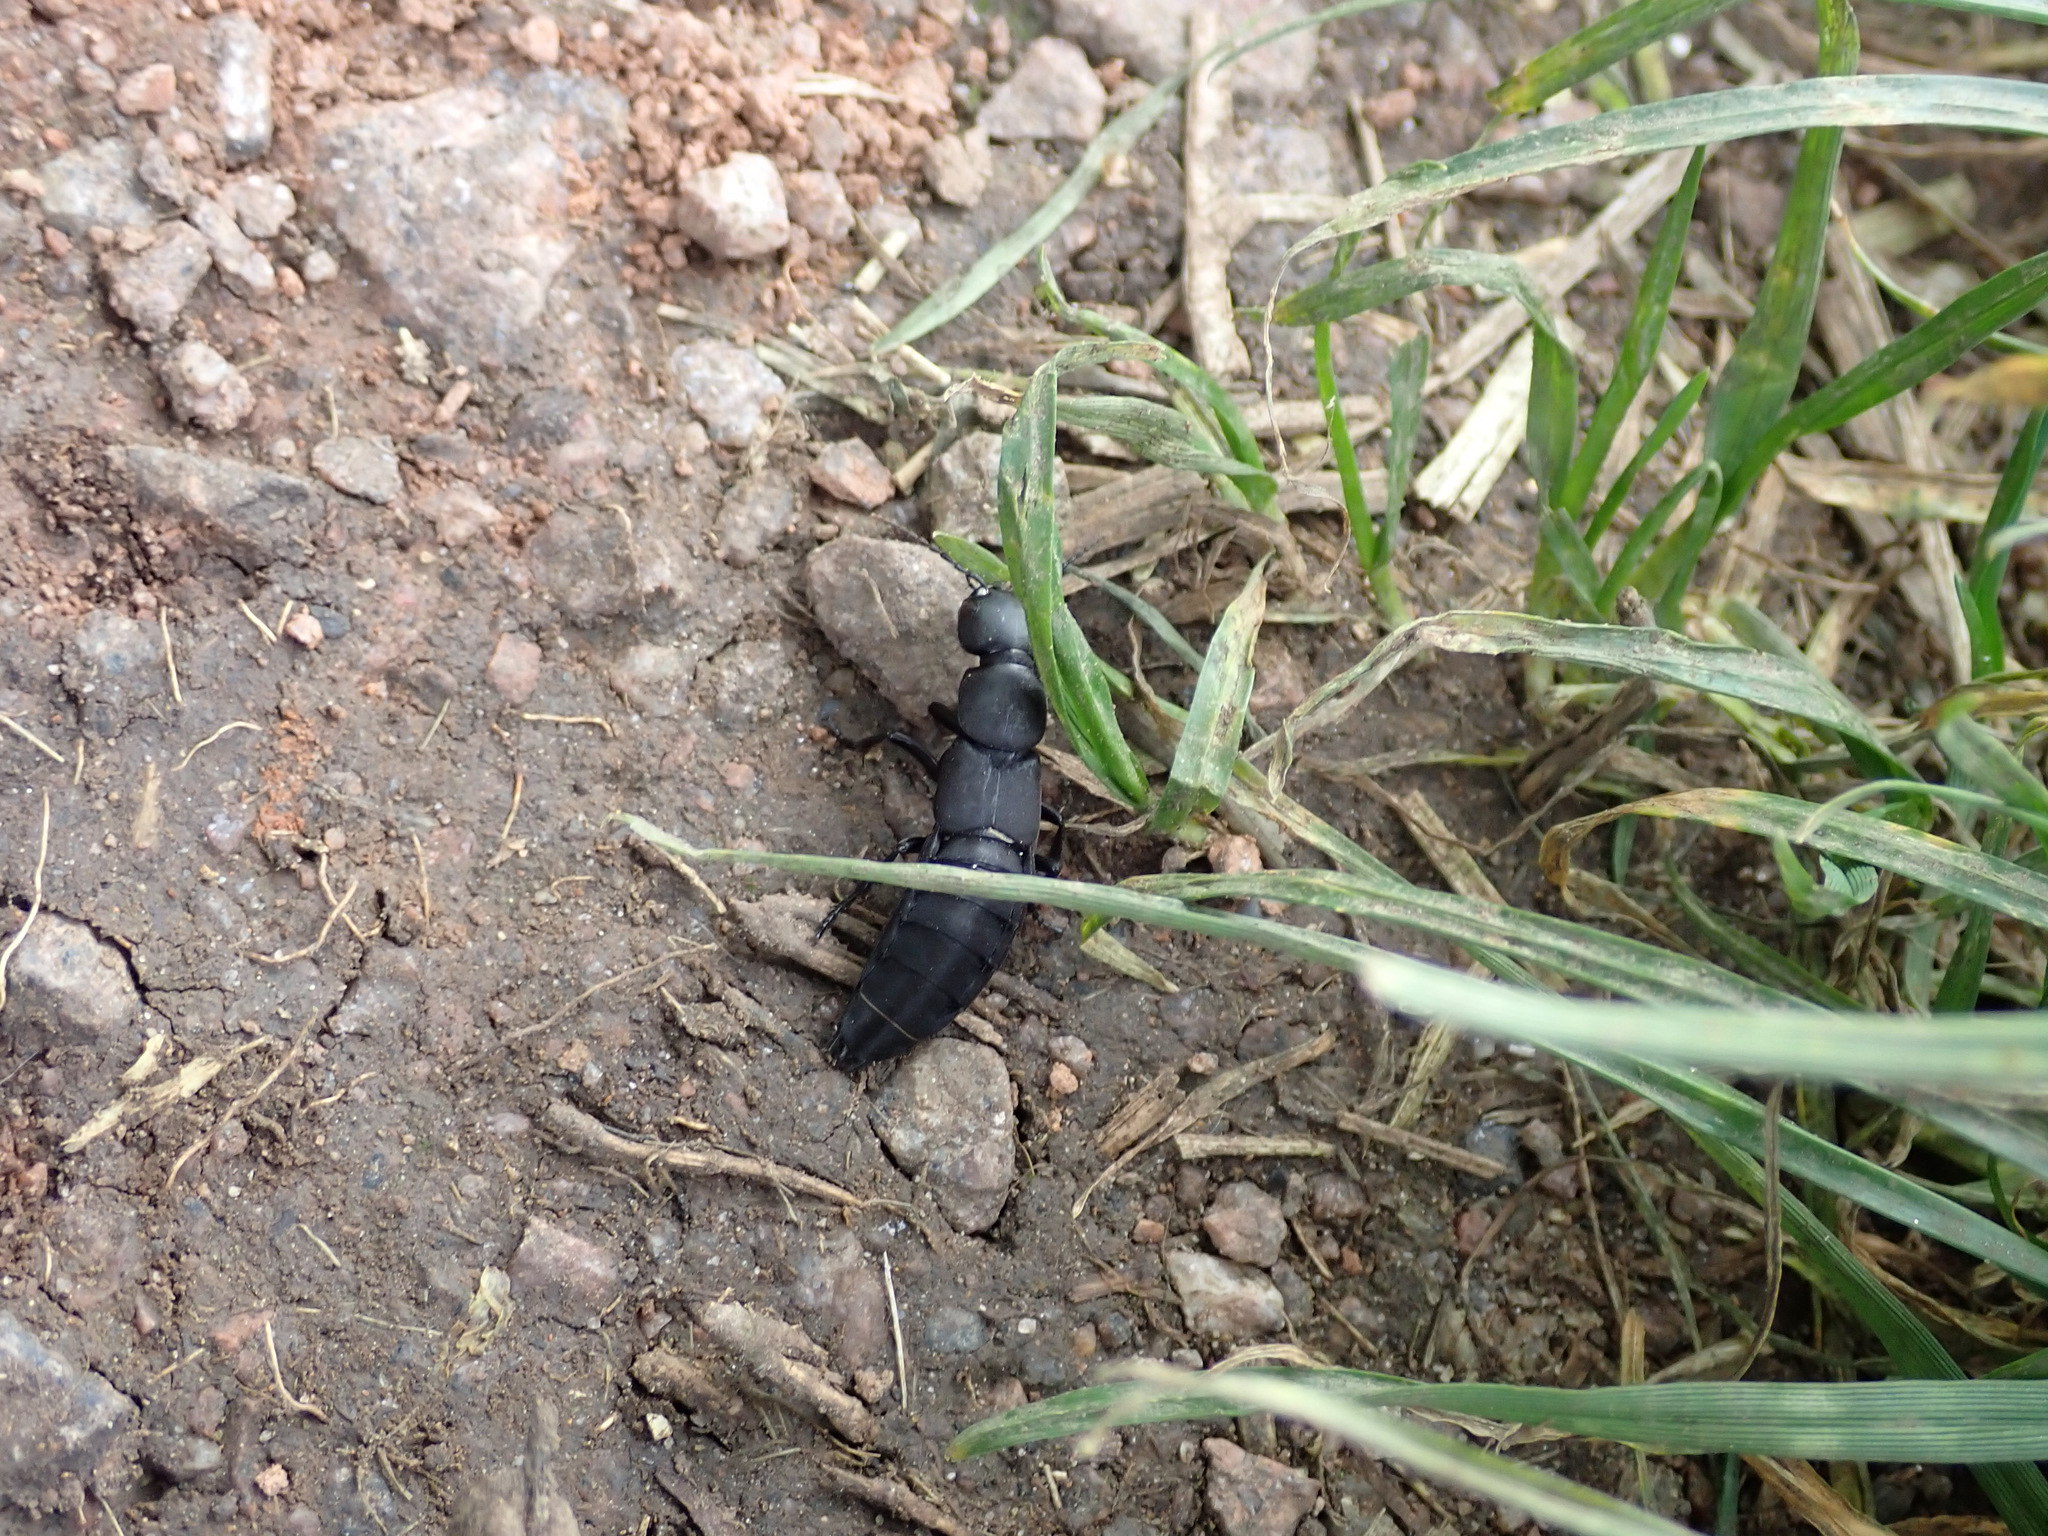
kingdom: Animalia
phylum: Arthropoda
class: Insecta
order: Coleoptera
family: Staphylinidae
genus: Ocypus
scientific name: Ocypus olens
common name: Devil's coach-horse
